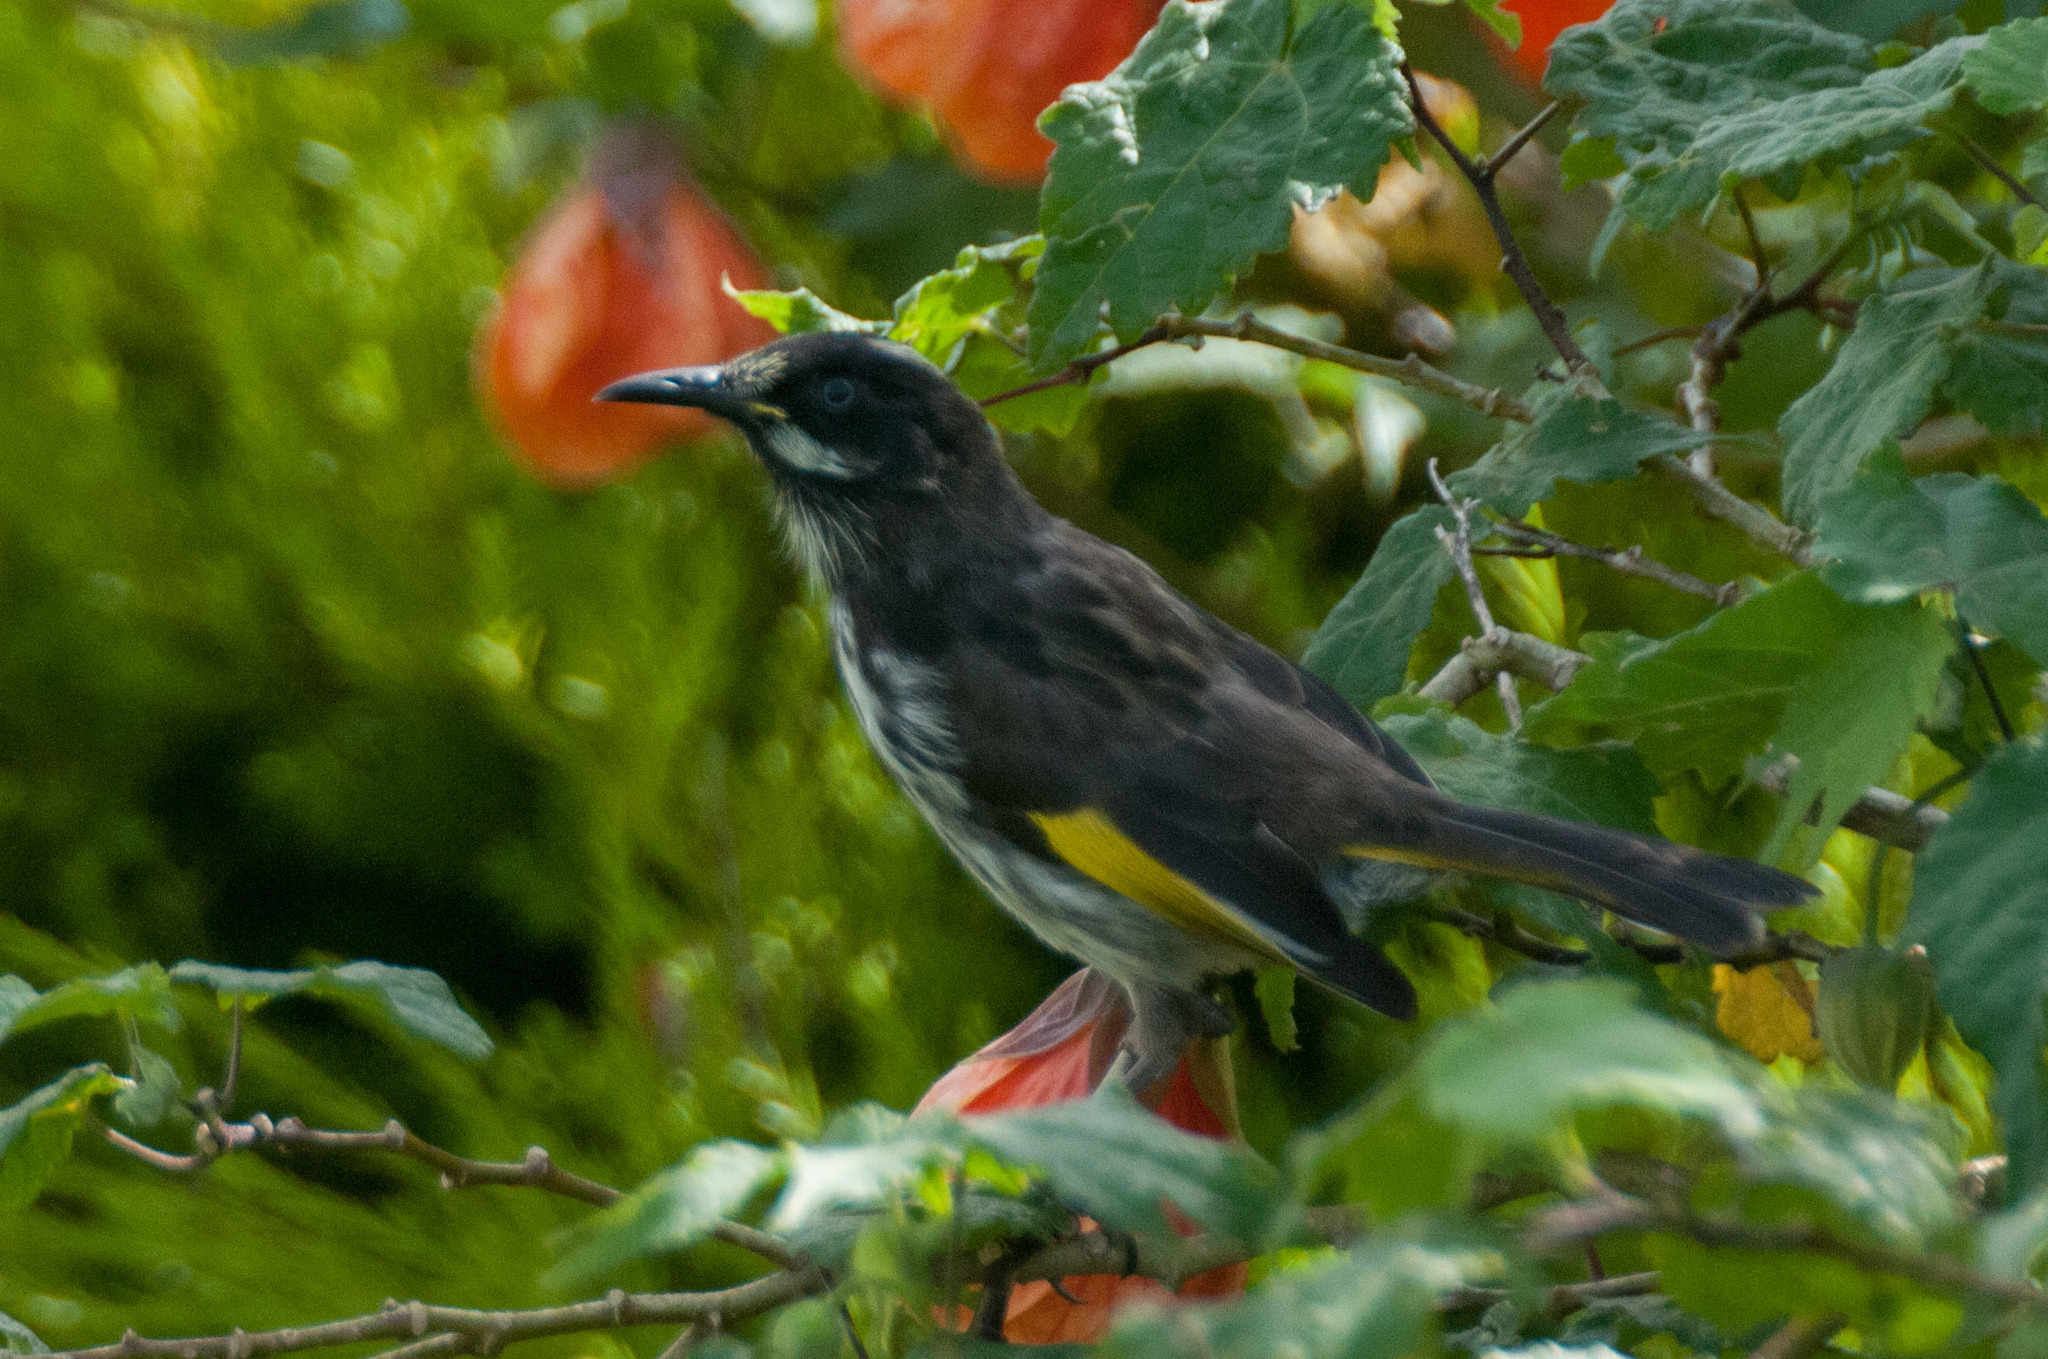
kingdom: Animalia
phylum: Chordata
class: Aves
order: Passeriformes
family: Meliphagidae
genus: Phylidonyris
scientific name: Phylidonyris novaehollandiae
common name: New holland honeyeater
